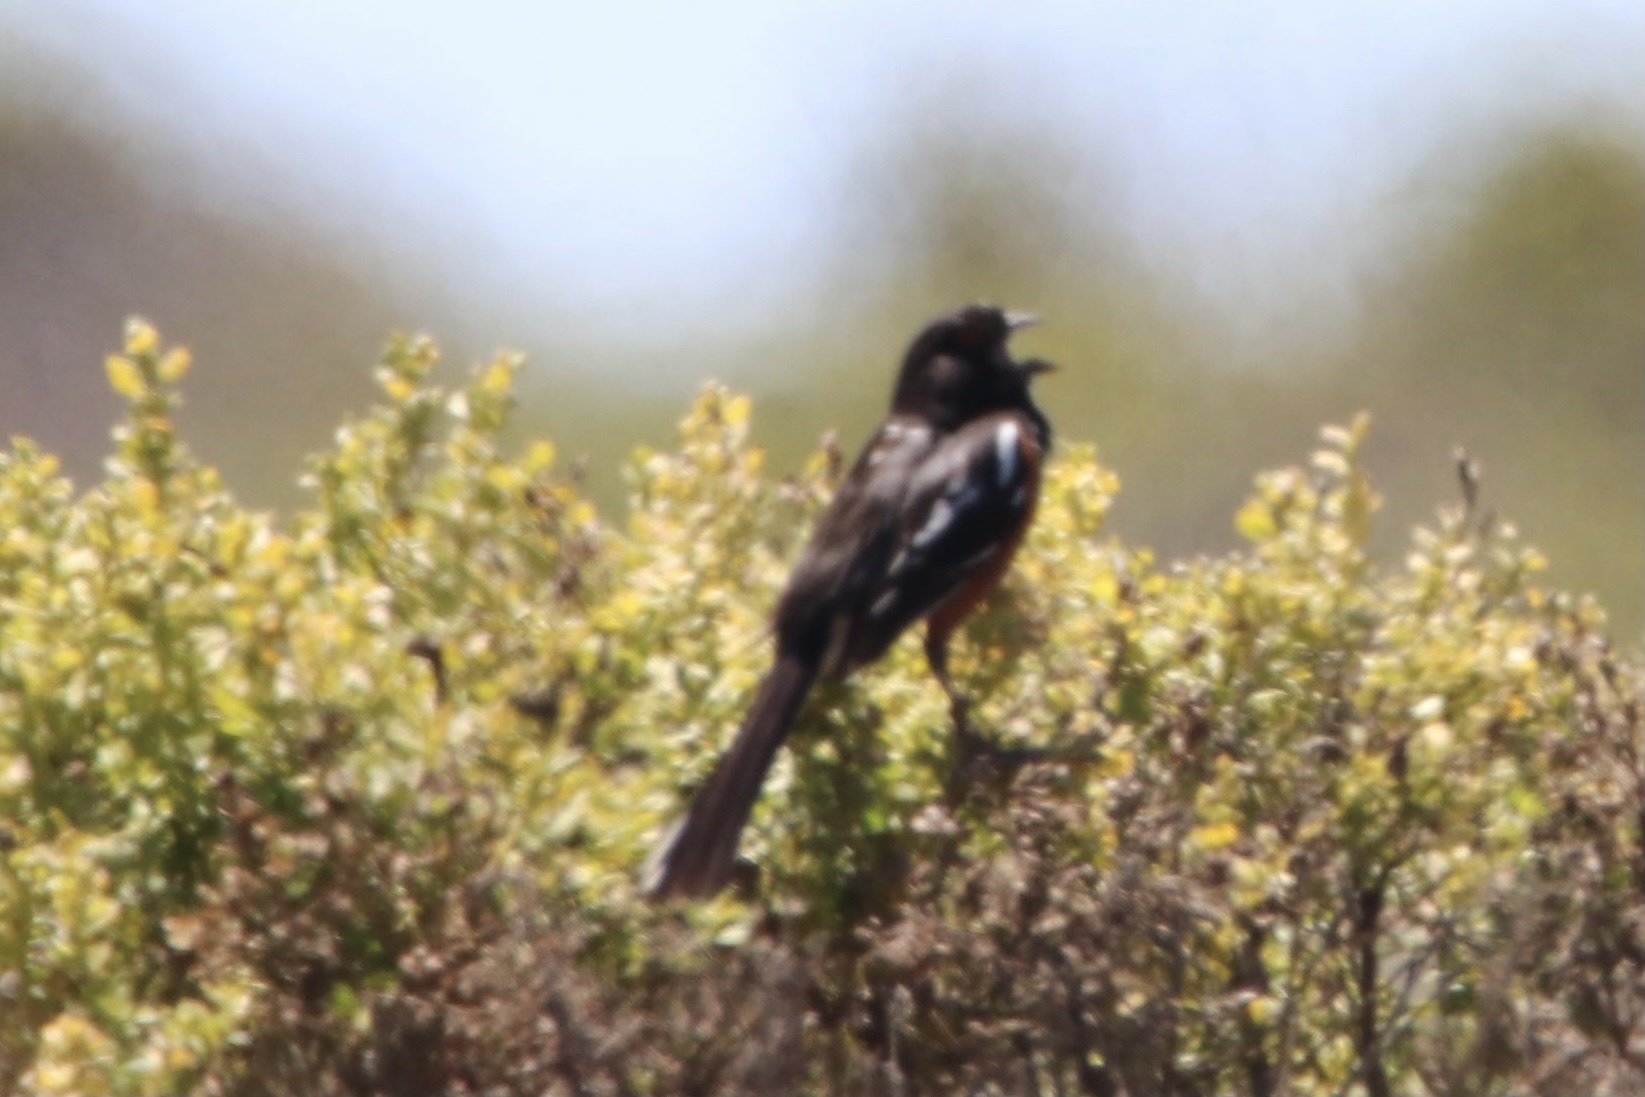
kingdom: Animalia
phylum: Chordata
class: Aves
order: Passeriformes
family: Passerellidae
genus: Pipilo
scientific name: Pipilo maculatus
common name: Spotted towhee
